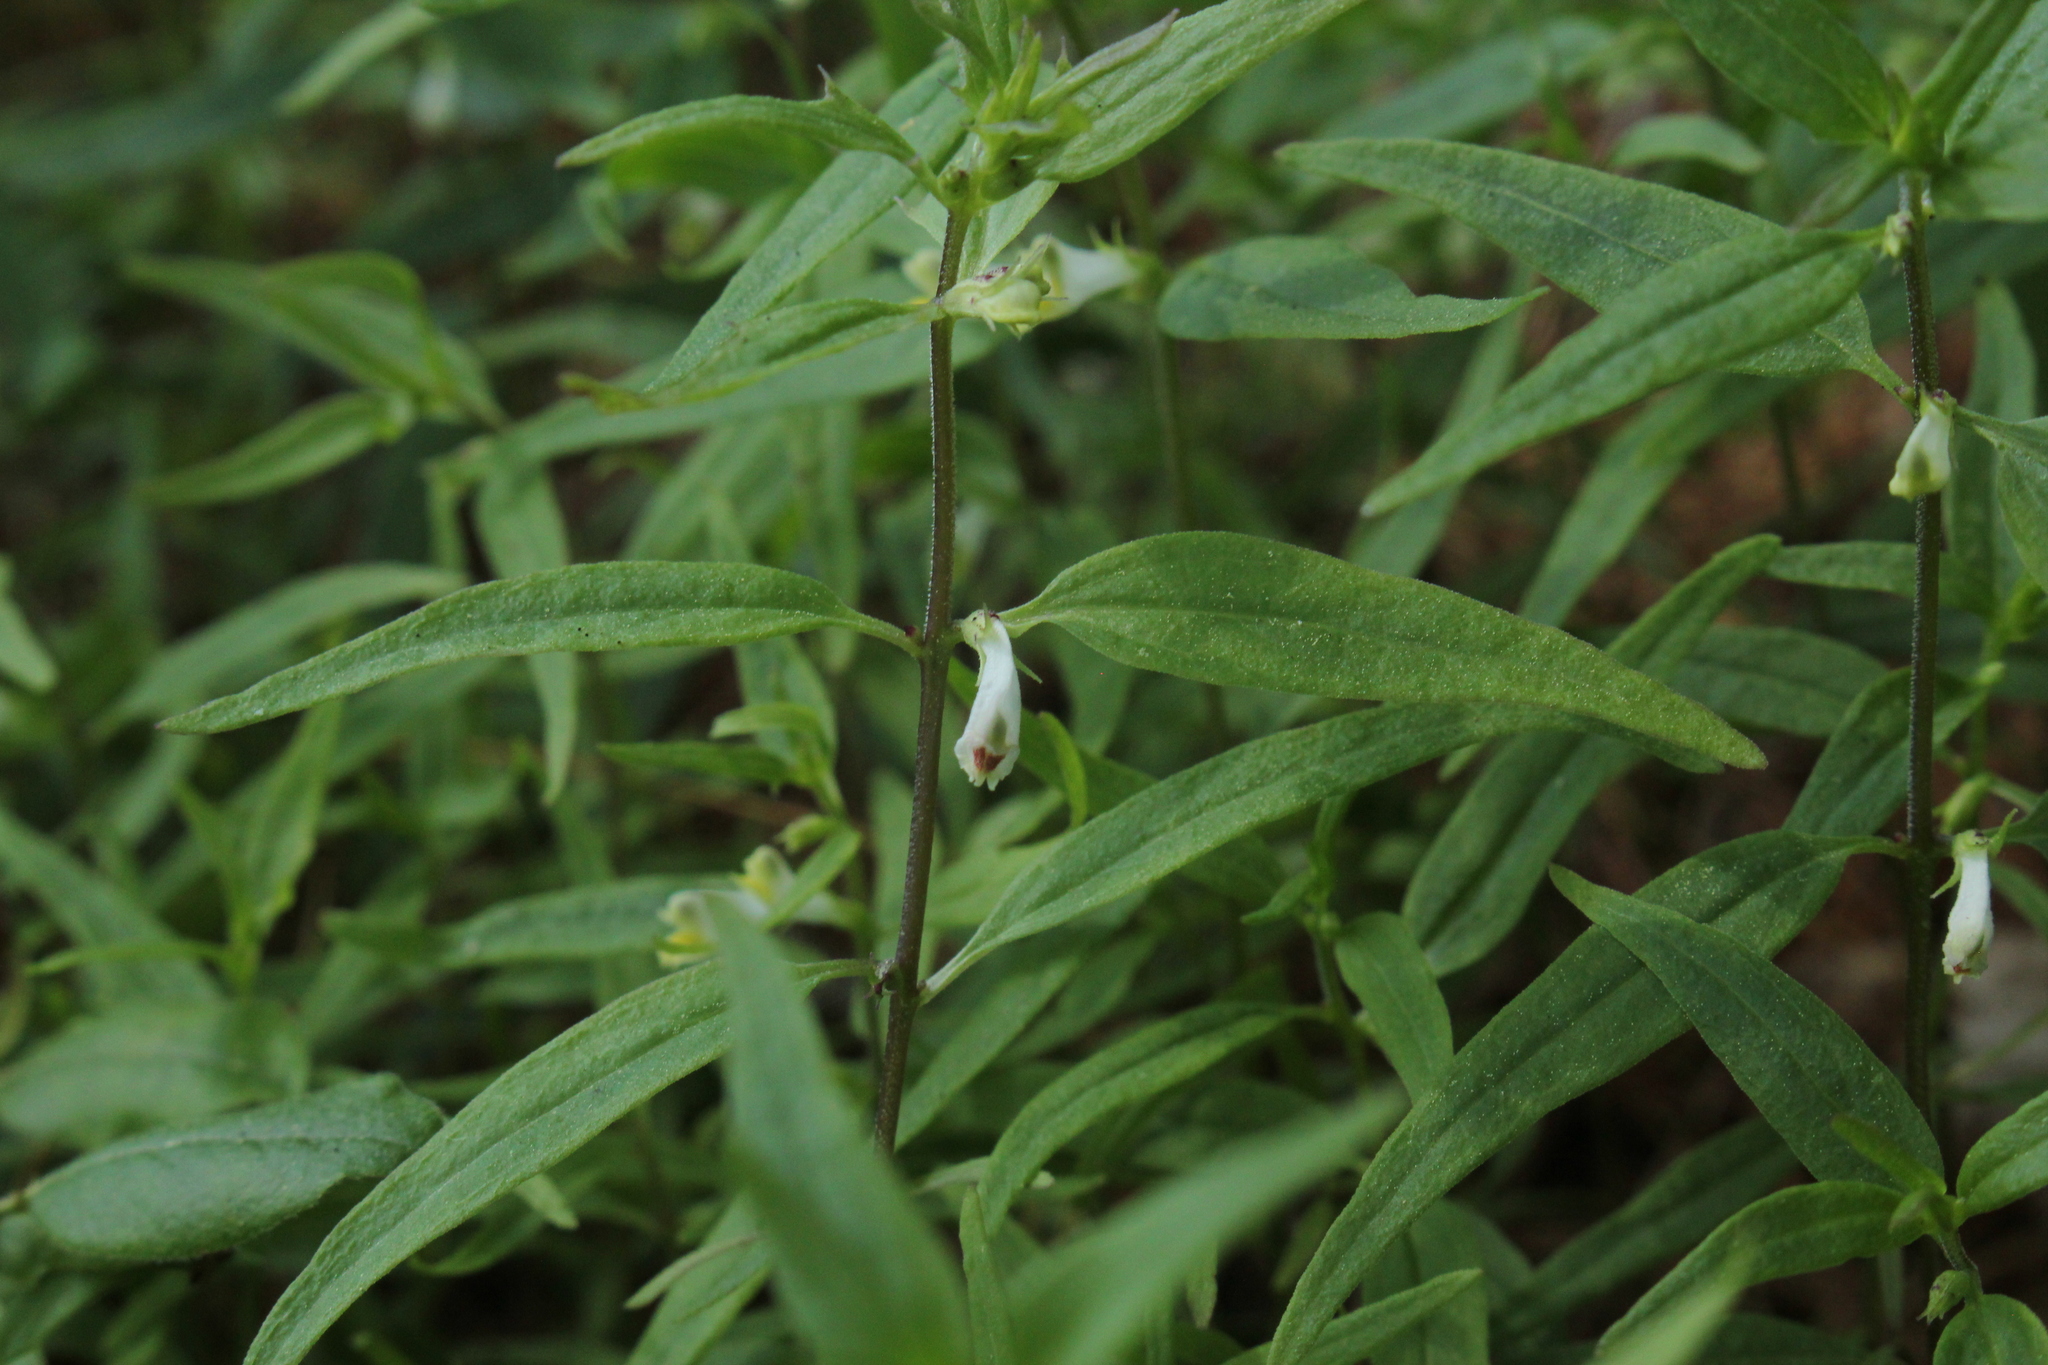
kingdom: Plantae
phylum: Tracheophyta
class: Magnoliopsida
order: Lamiales
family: Orobanchaceae
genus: Melampyrum
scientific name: Melampyrum lineare
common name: American cow-wheat
